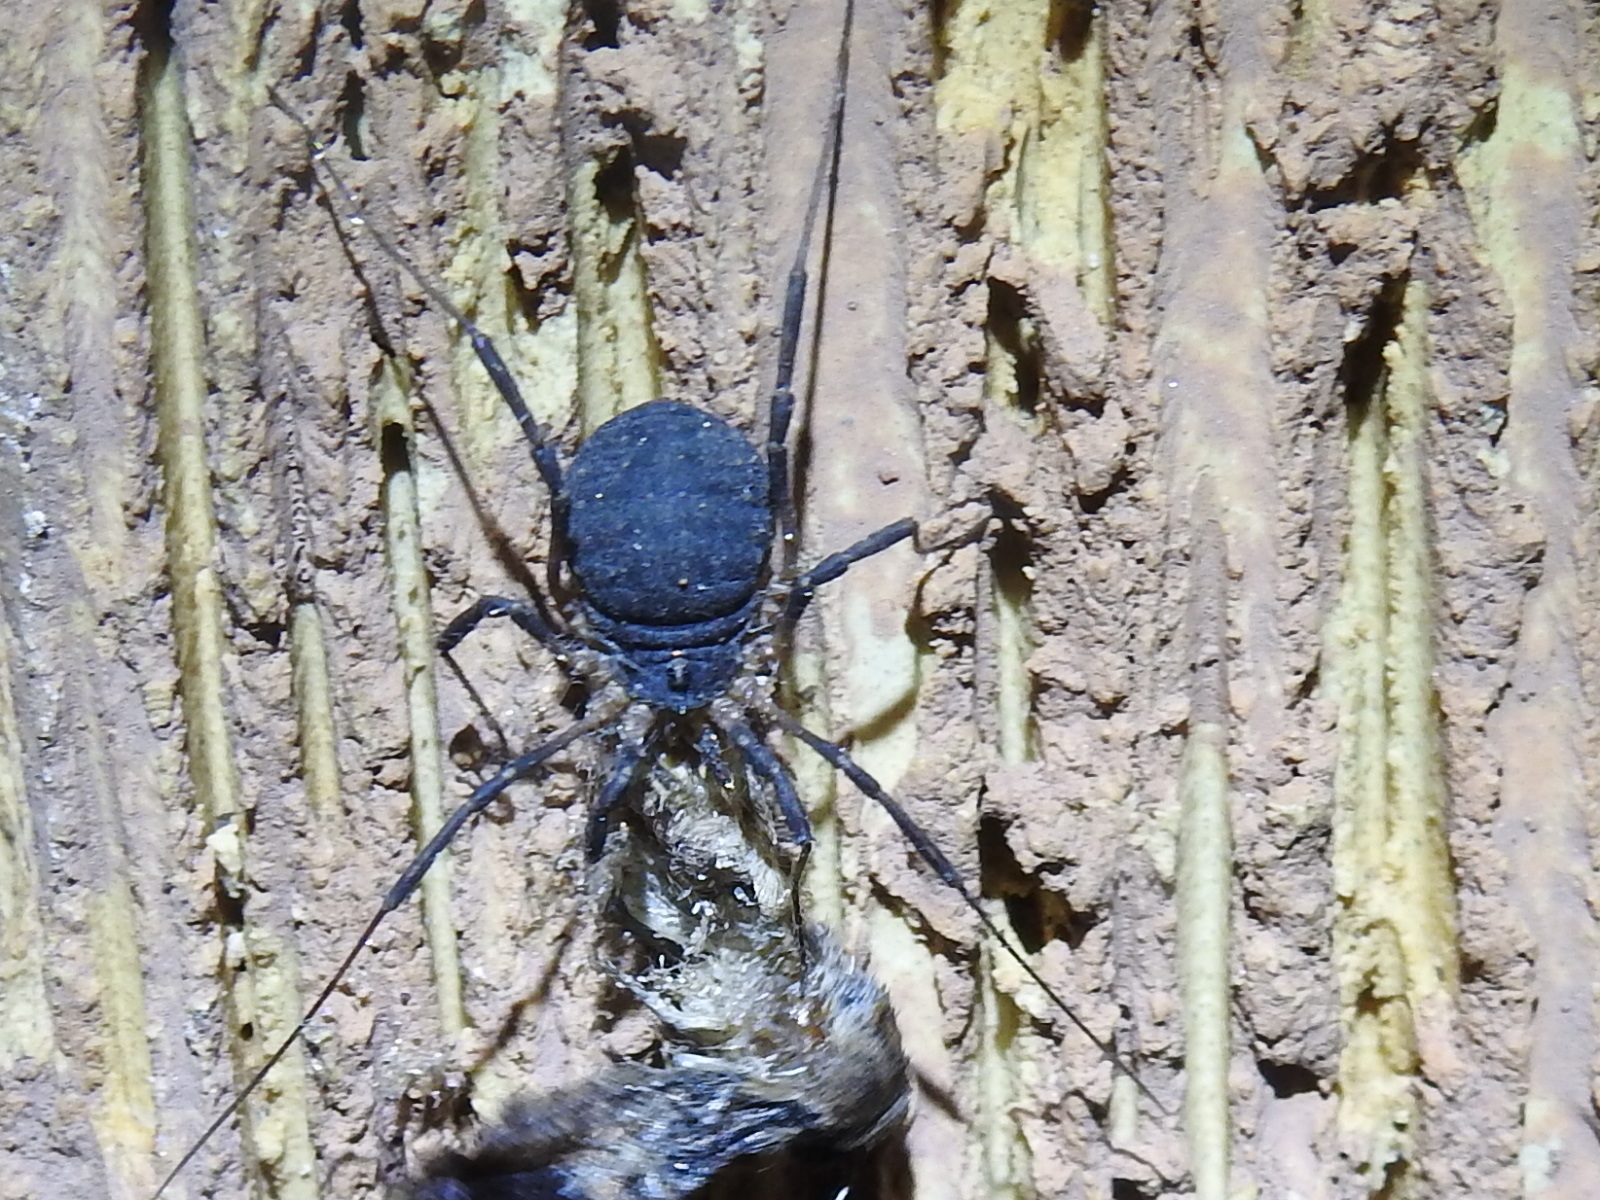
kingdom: Animalia
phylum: Arthropoda
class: Arachnida
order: Opiliones
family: Sclerosomatidae
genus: Eumesosoma
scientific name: Eumesosoma roeweri
